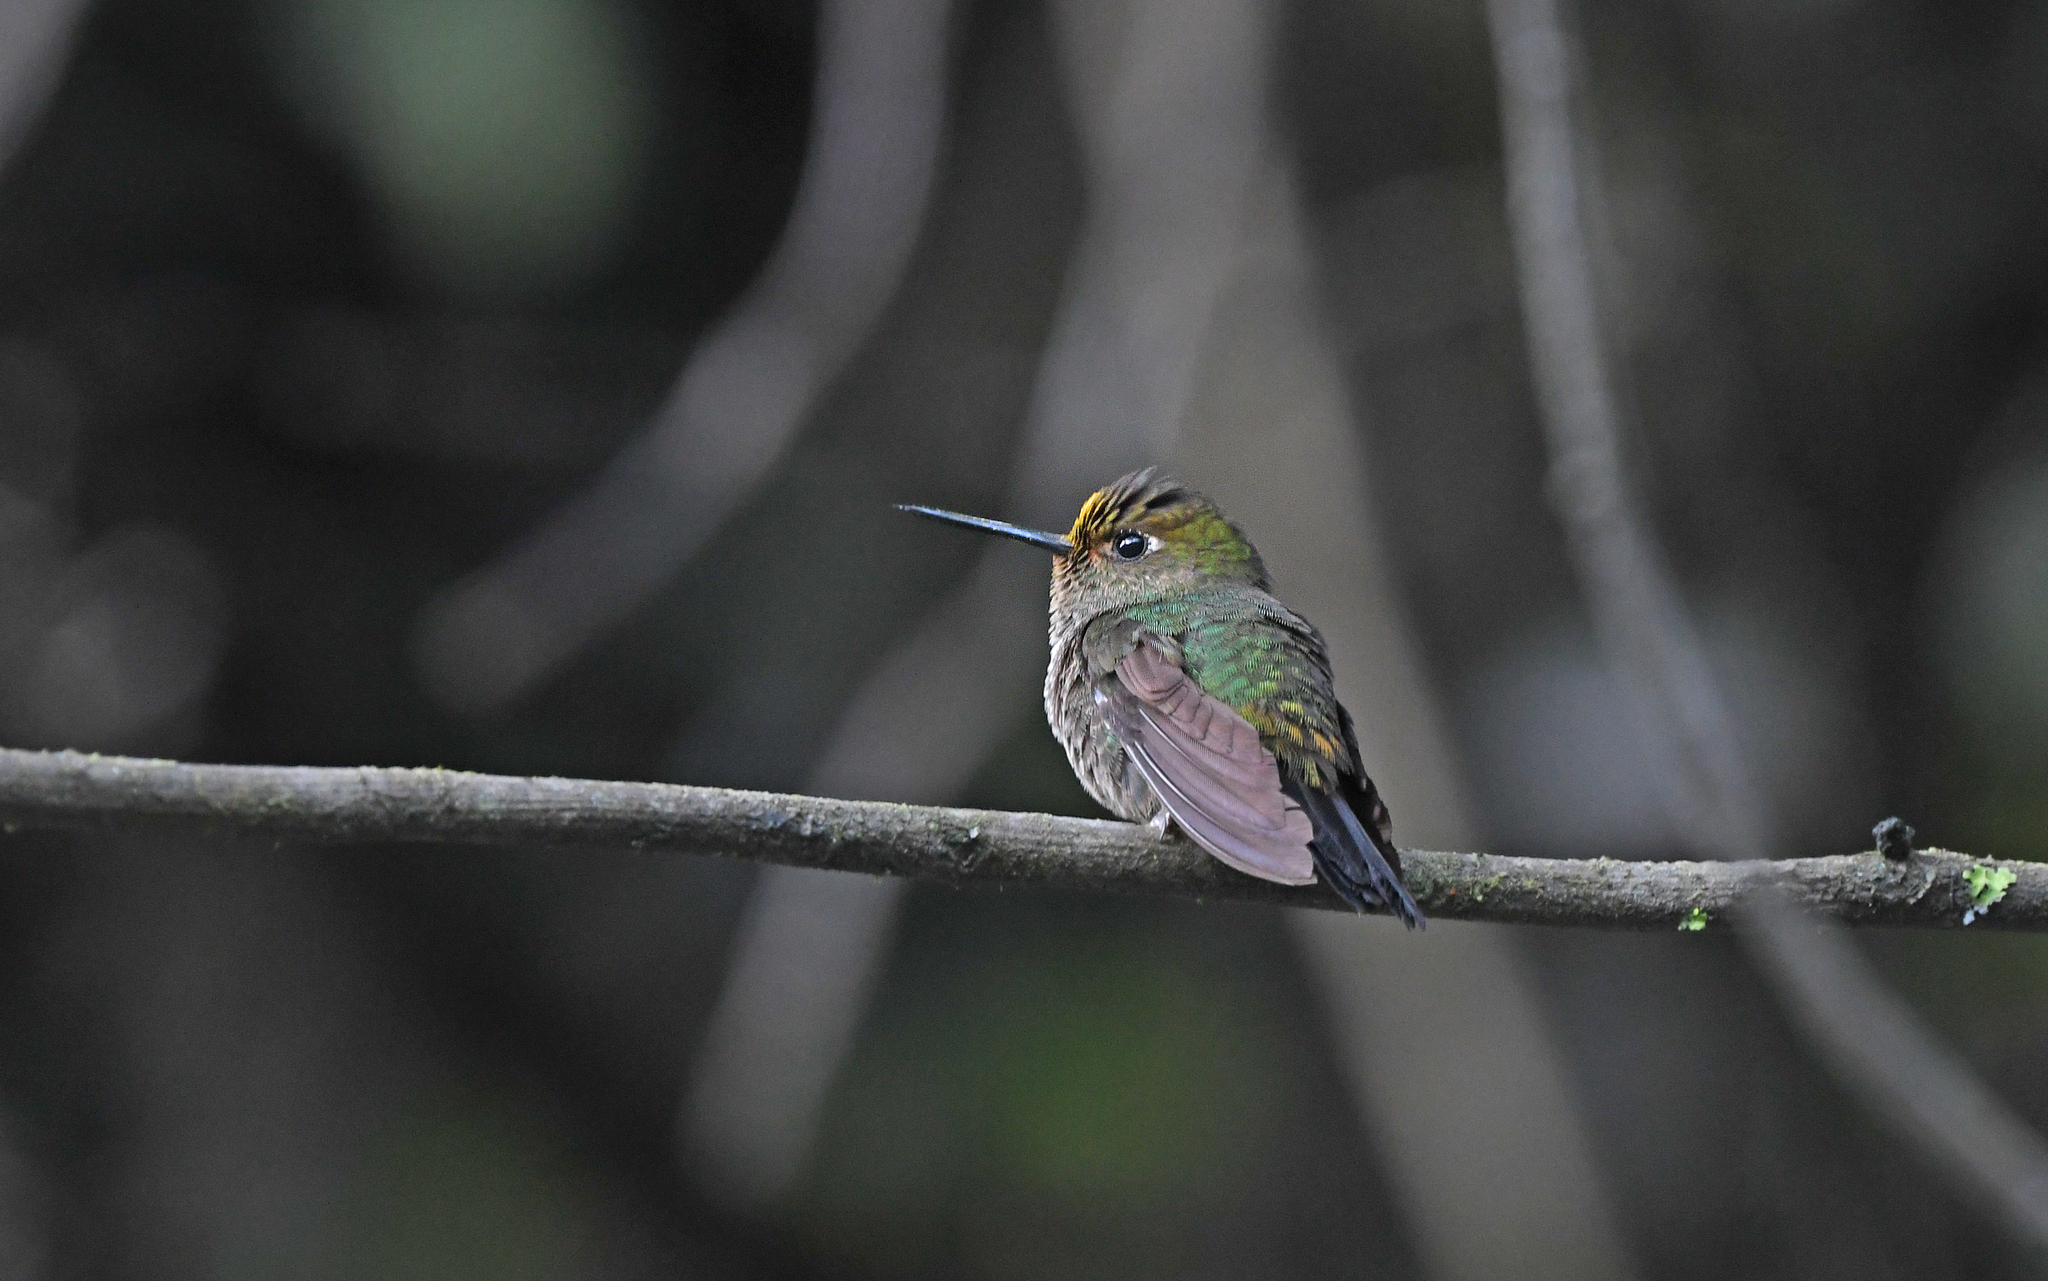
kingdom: Animalia
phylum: Chordata
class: Aves
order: Apodiformes
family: Trochilidae
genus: Haplophaedia
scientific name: Haplophaedia assimilis
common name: Buff-thighed puffleg
